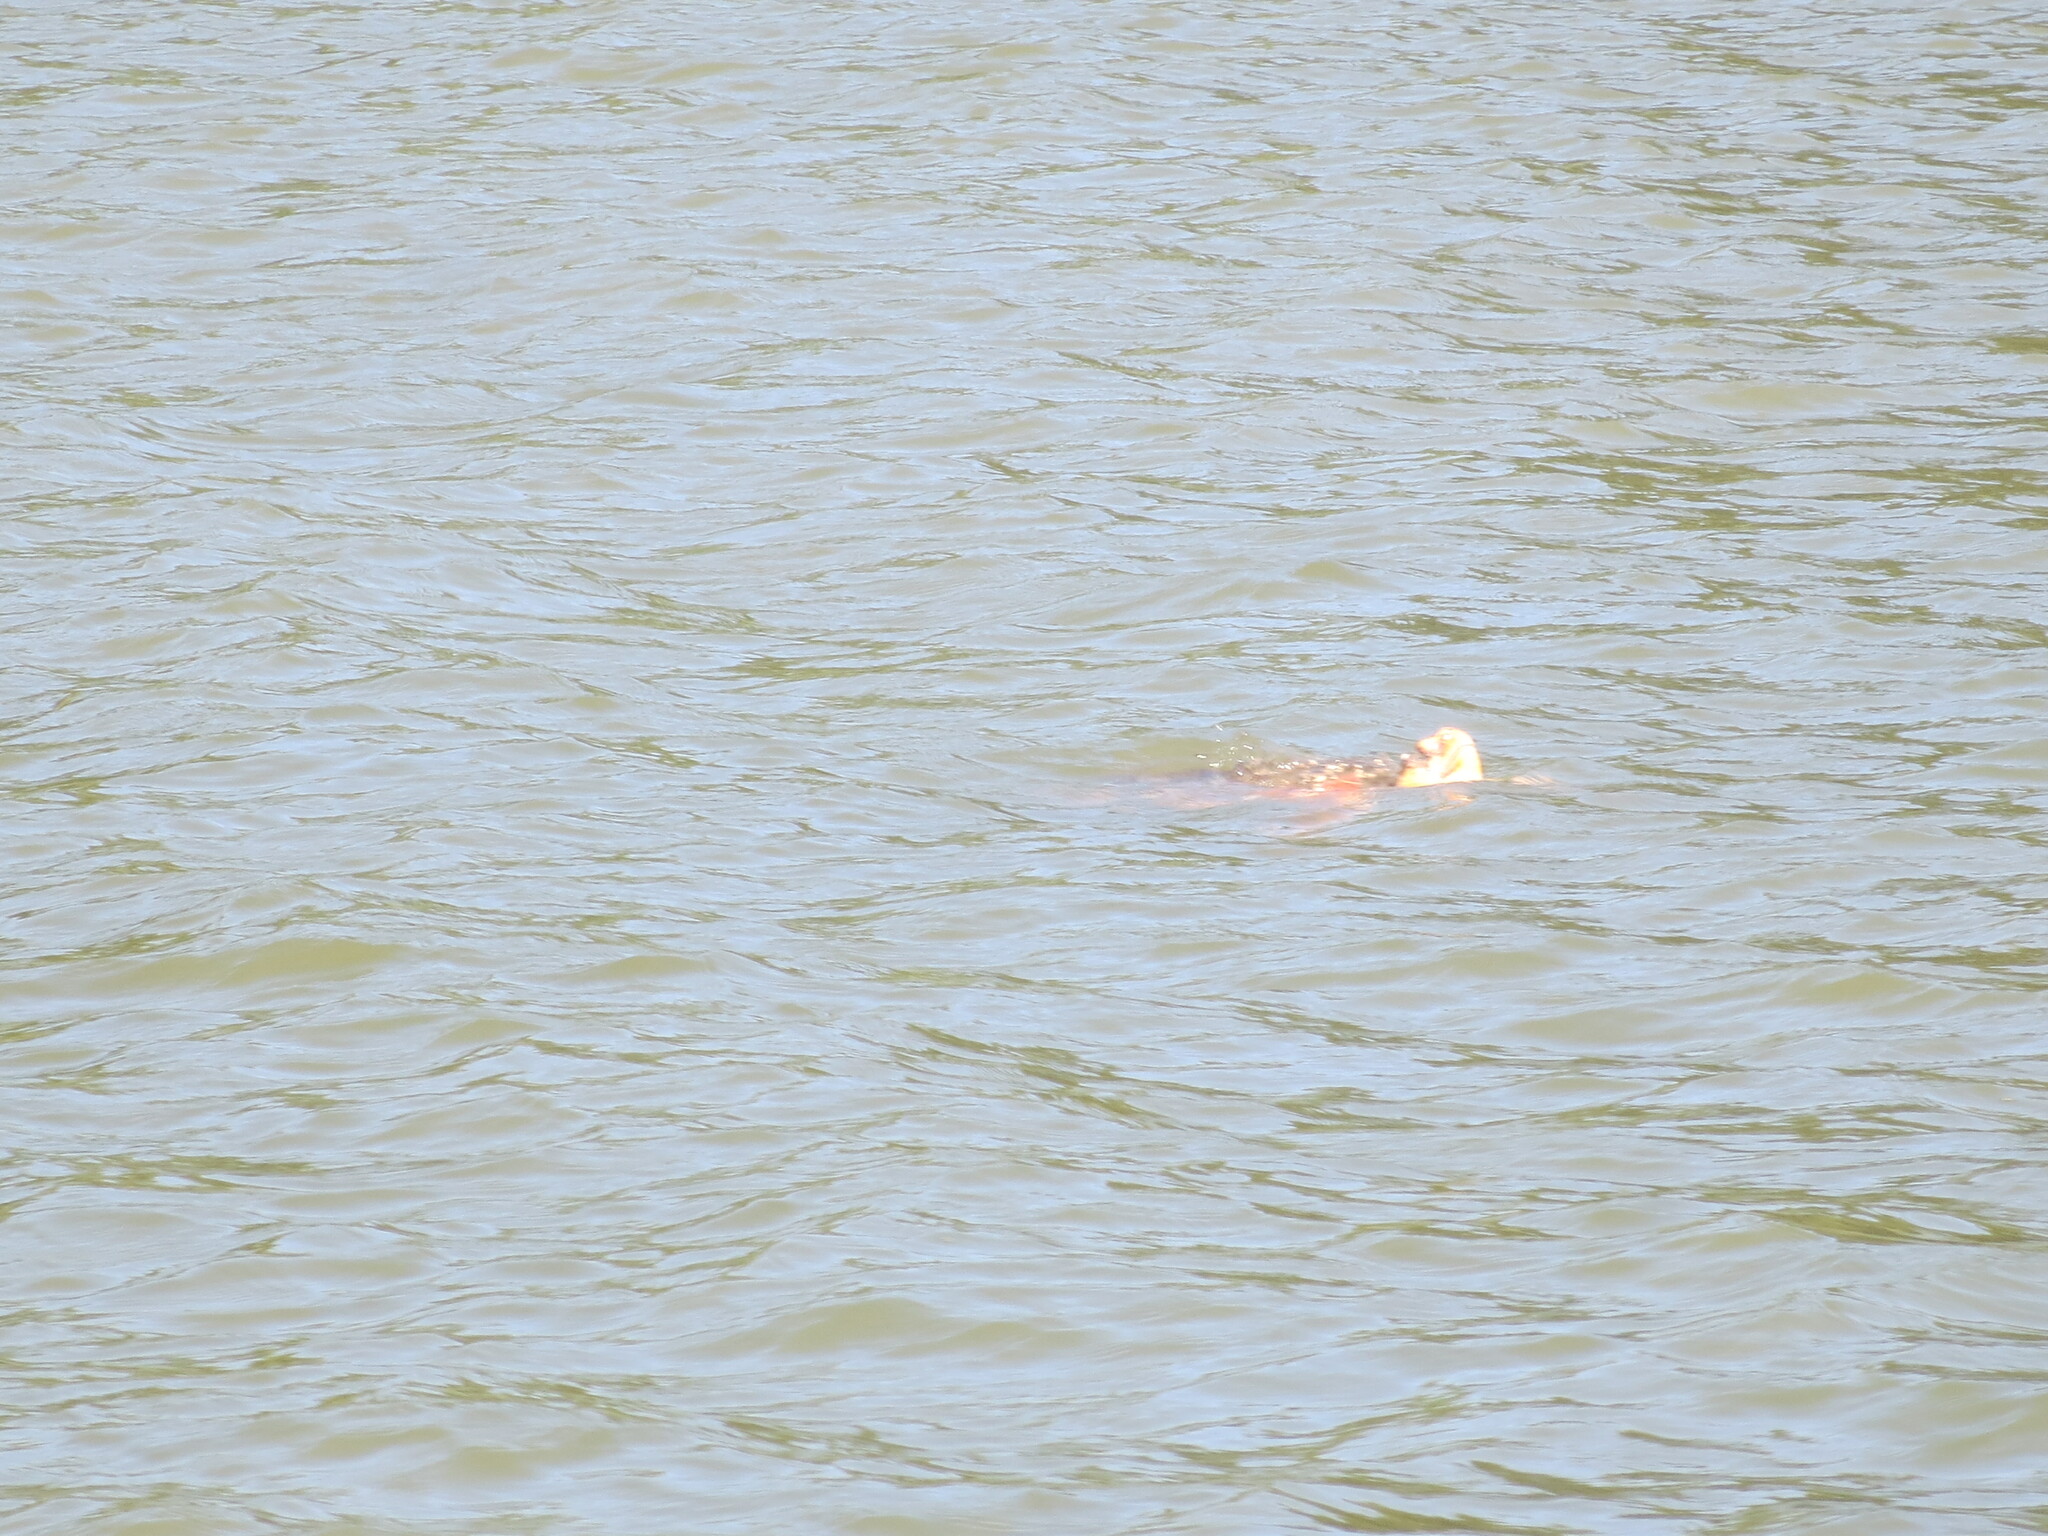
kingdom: Animalia
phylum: Chordata
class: Testudines
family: Cheloniidae
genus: Caretta
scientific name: Caretta caretta
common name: Loggerhead sea turtle
